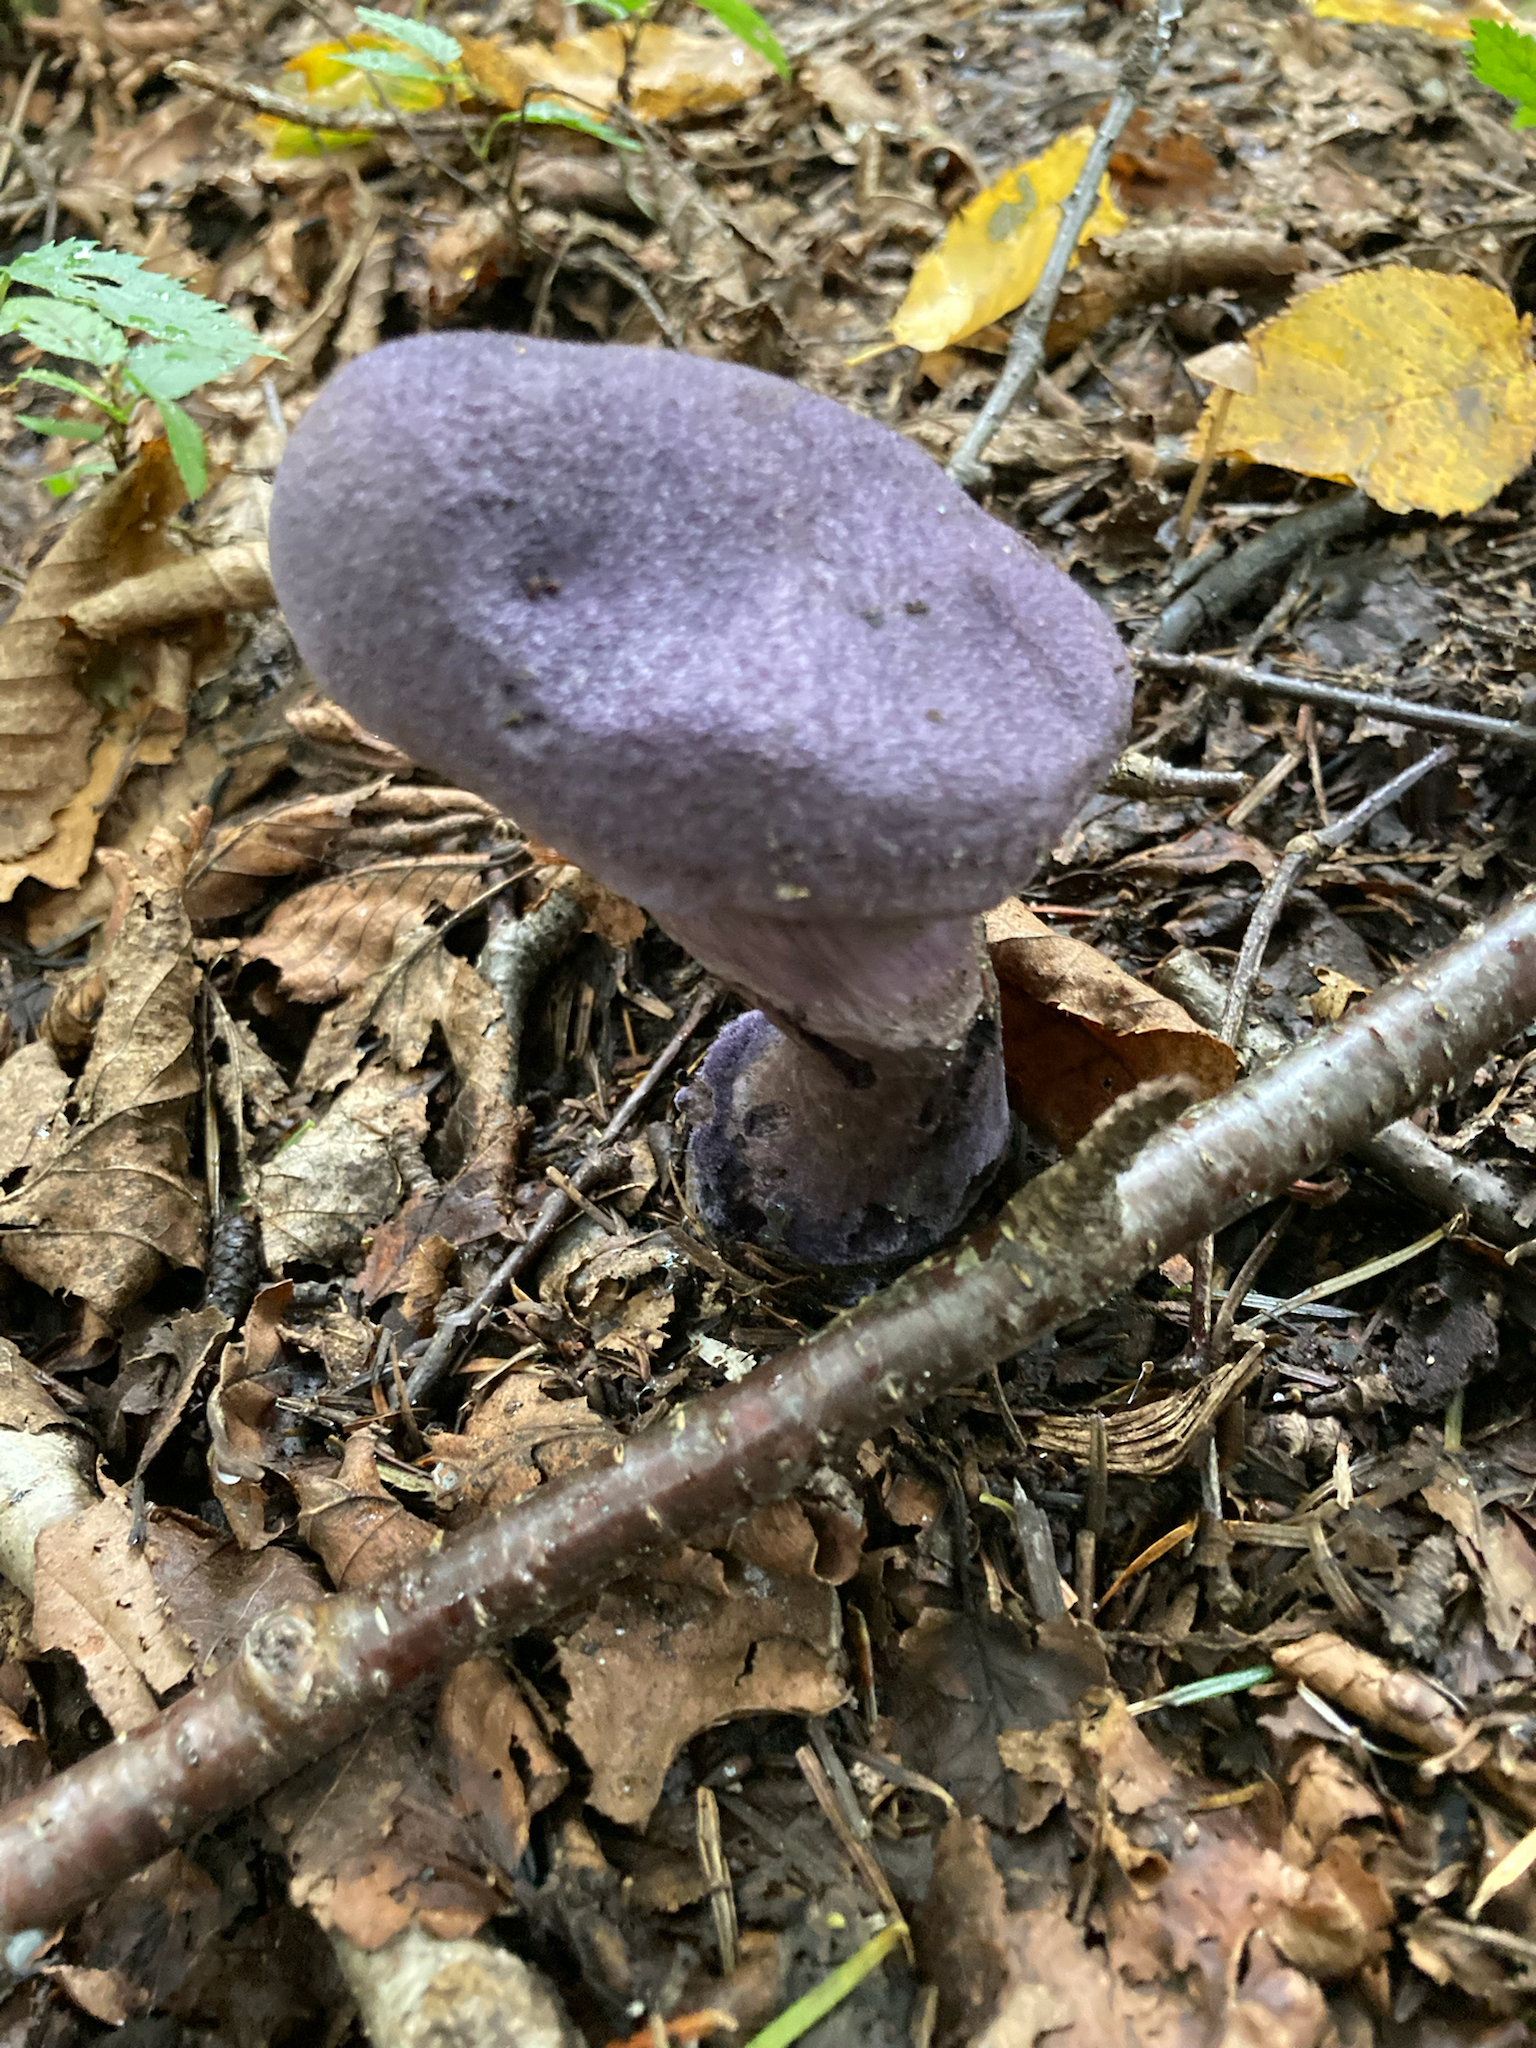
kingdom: Fungi
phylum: Basidiomycota
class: Agaricomycetes
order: Agaricales
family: Cortinariaceae
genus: Cortinarius
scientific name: Cortinarius violaceus
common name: Violet webcap
